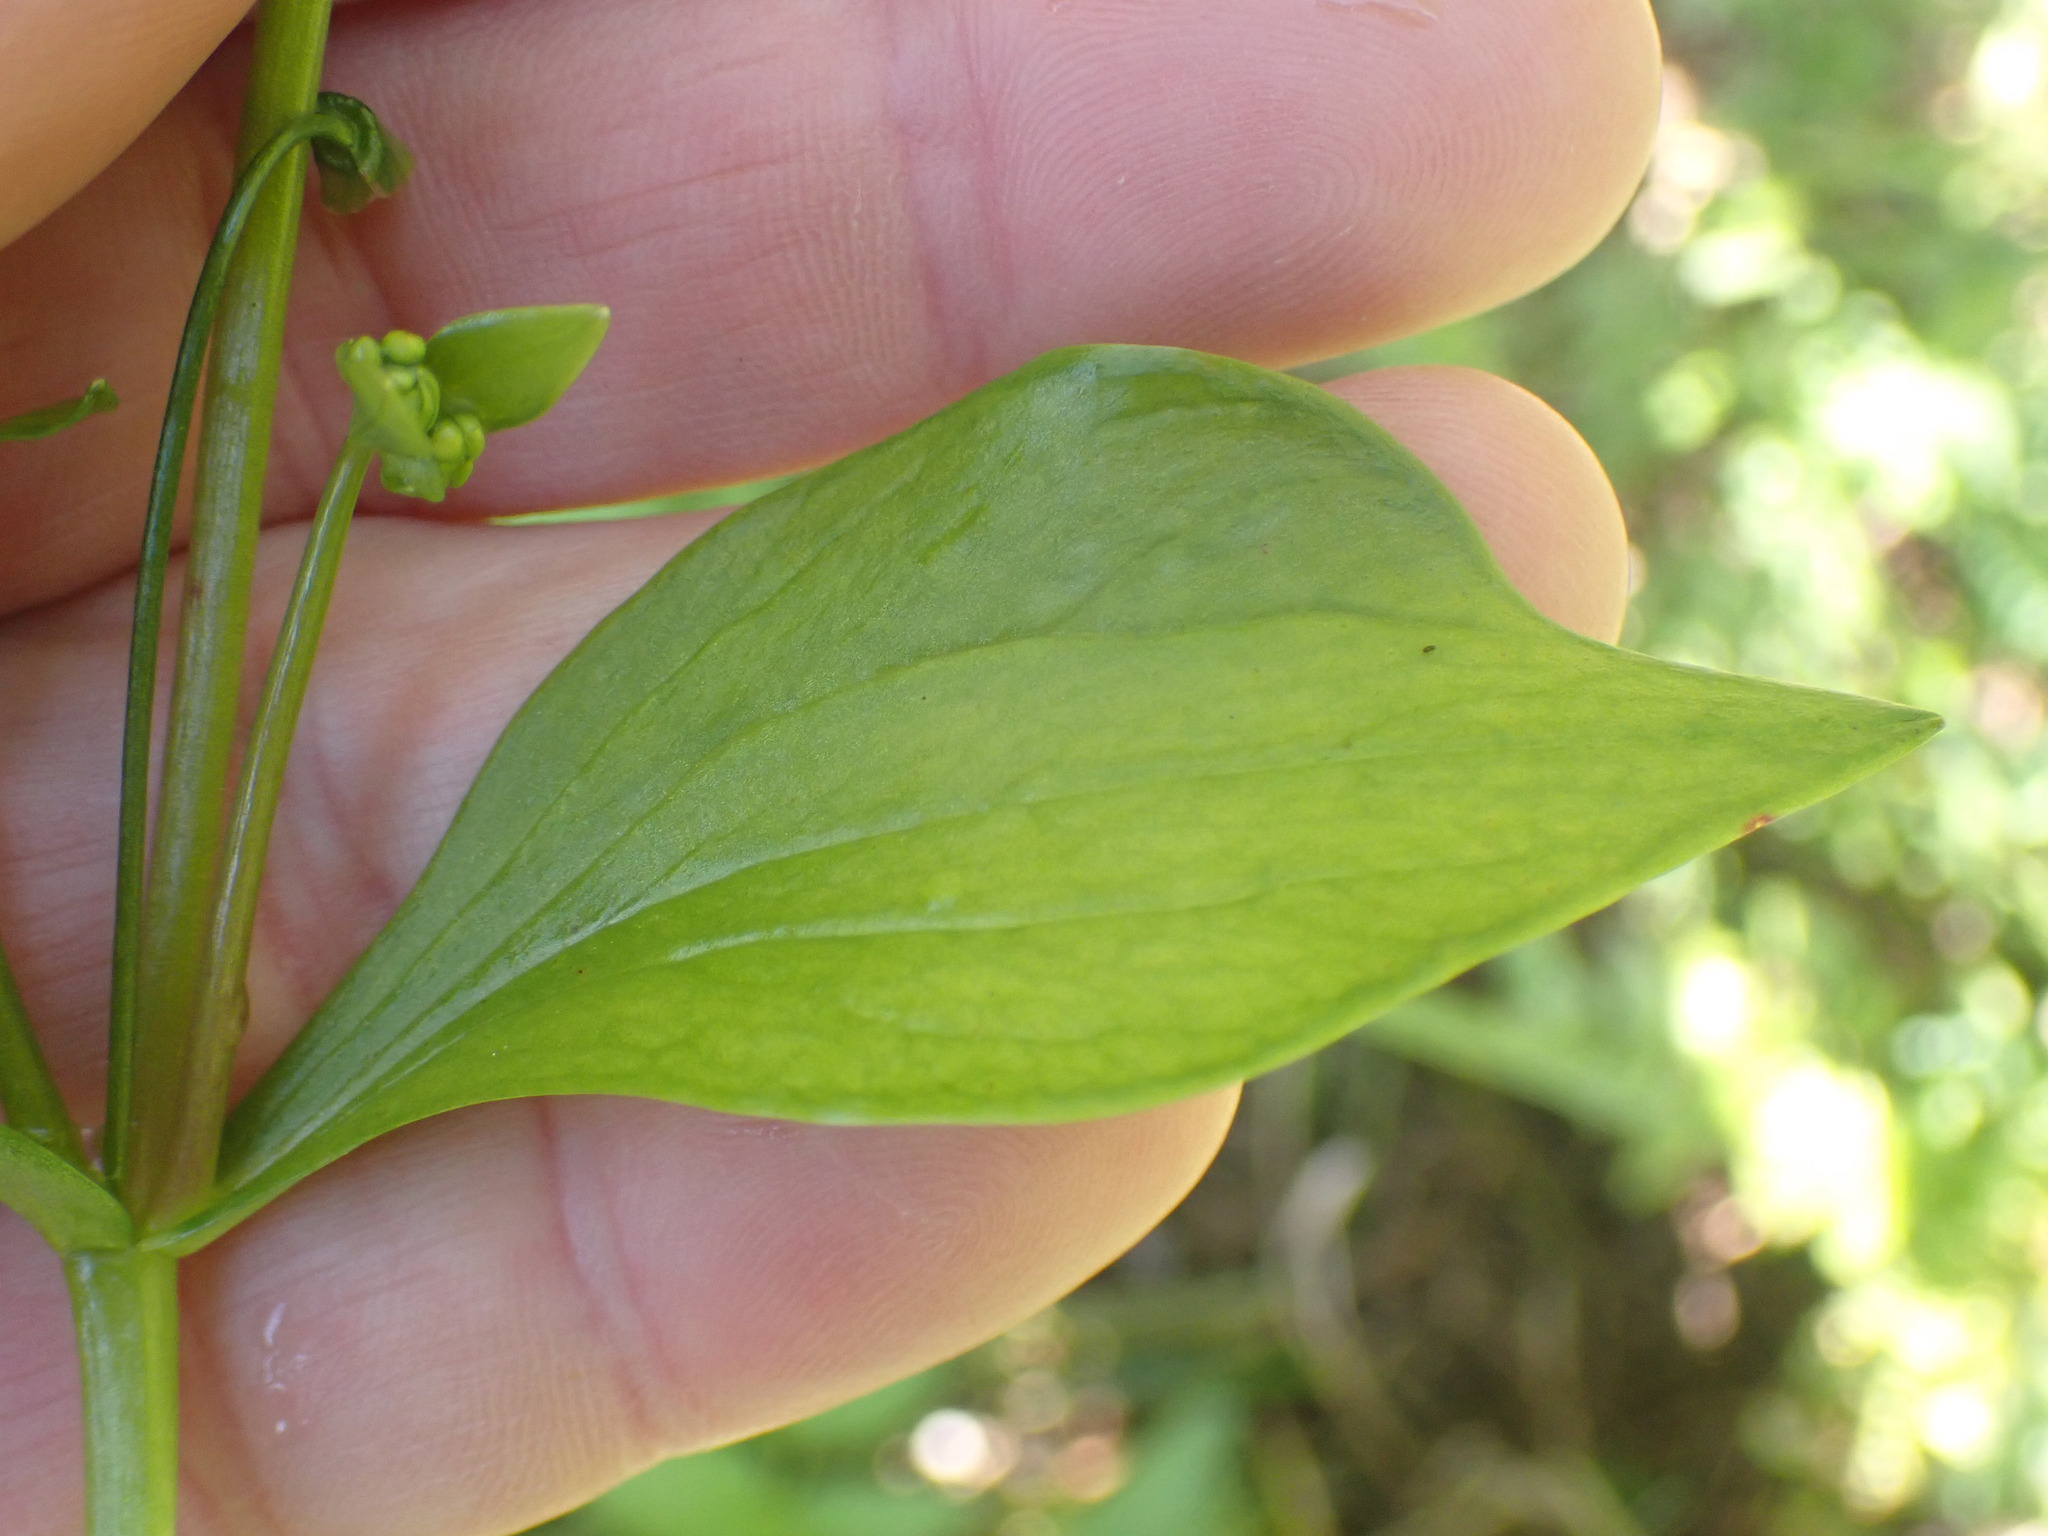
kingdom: Plantae
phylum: Tracheophyta
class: Magnoliopsida
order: Caryophyllales
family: Montiaceae
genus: Claytonia
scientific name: Claytonia sibirica
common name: Pink purslane
